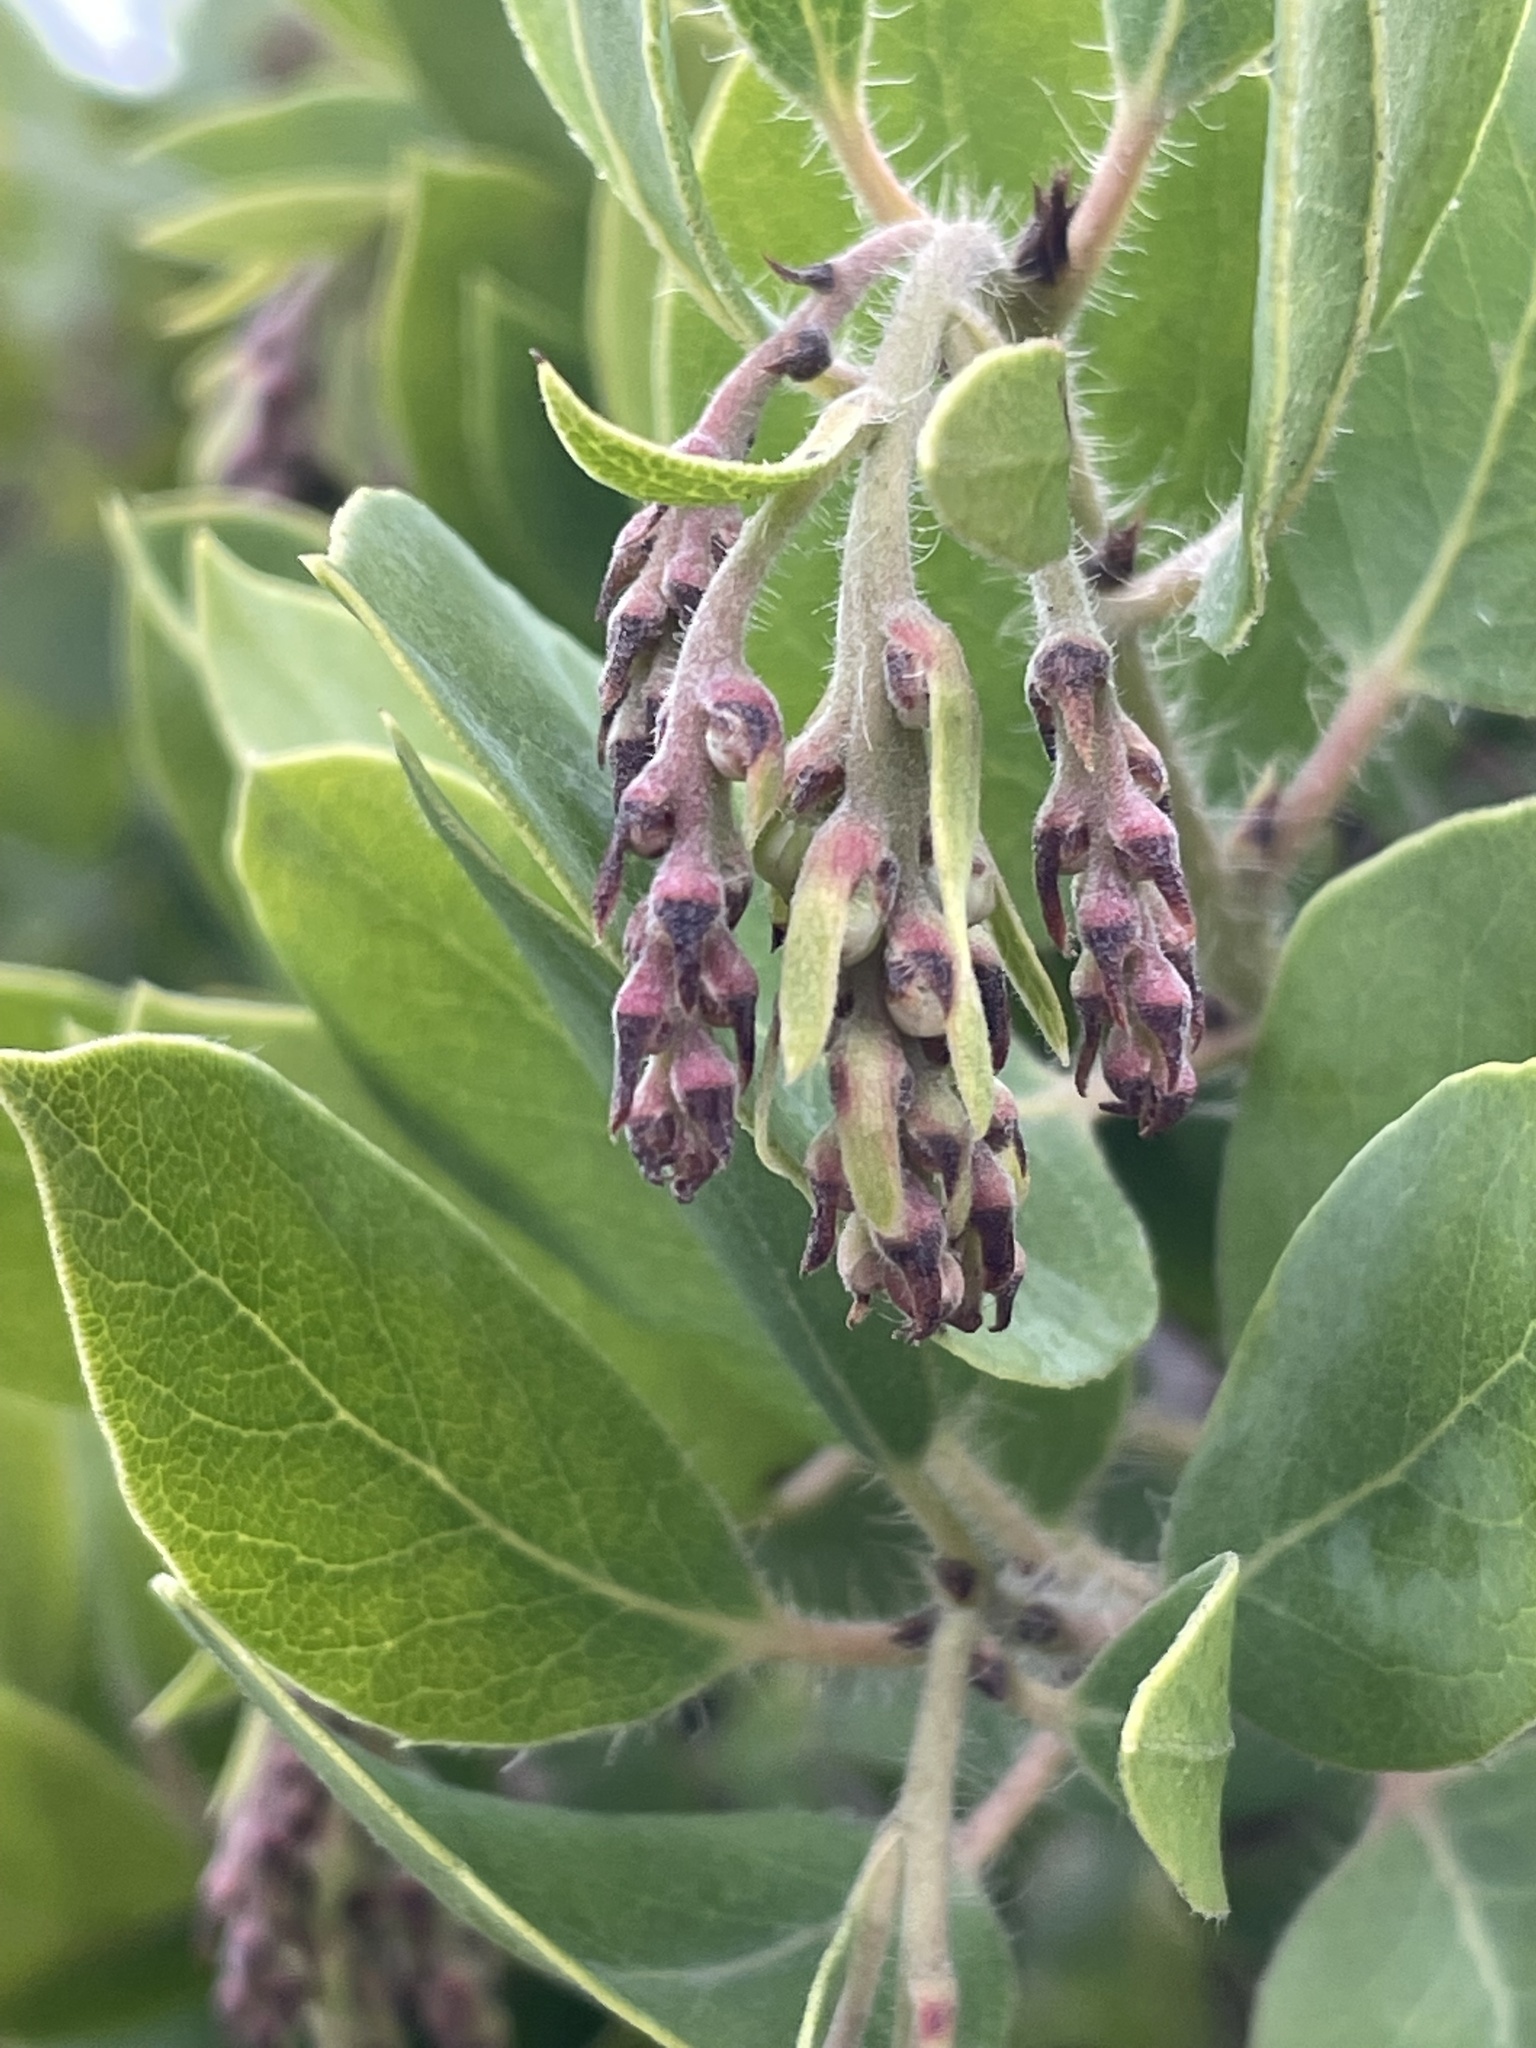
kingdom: Plantae
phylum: Tracheophyta
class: Magnoliopsida
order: Ericales
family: Ericaceae
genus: Arctostaphylos
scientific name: Arctostaphylos crustacea
